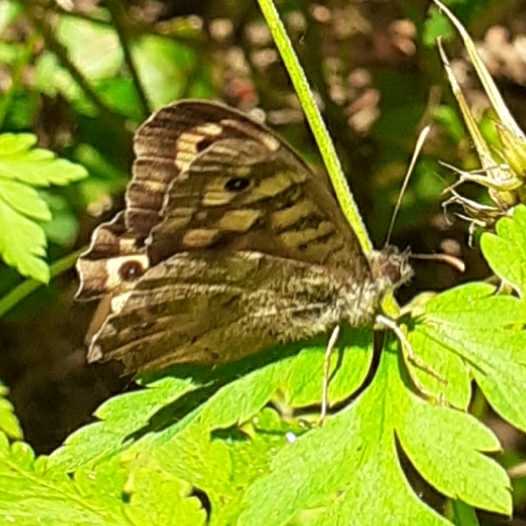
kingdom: Animalia
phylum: Arthropoda
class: Insecta
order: Lepidoptera
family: Nymphalidae
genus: Pararge
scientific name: Pararge aegeria
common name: Speckled wood
